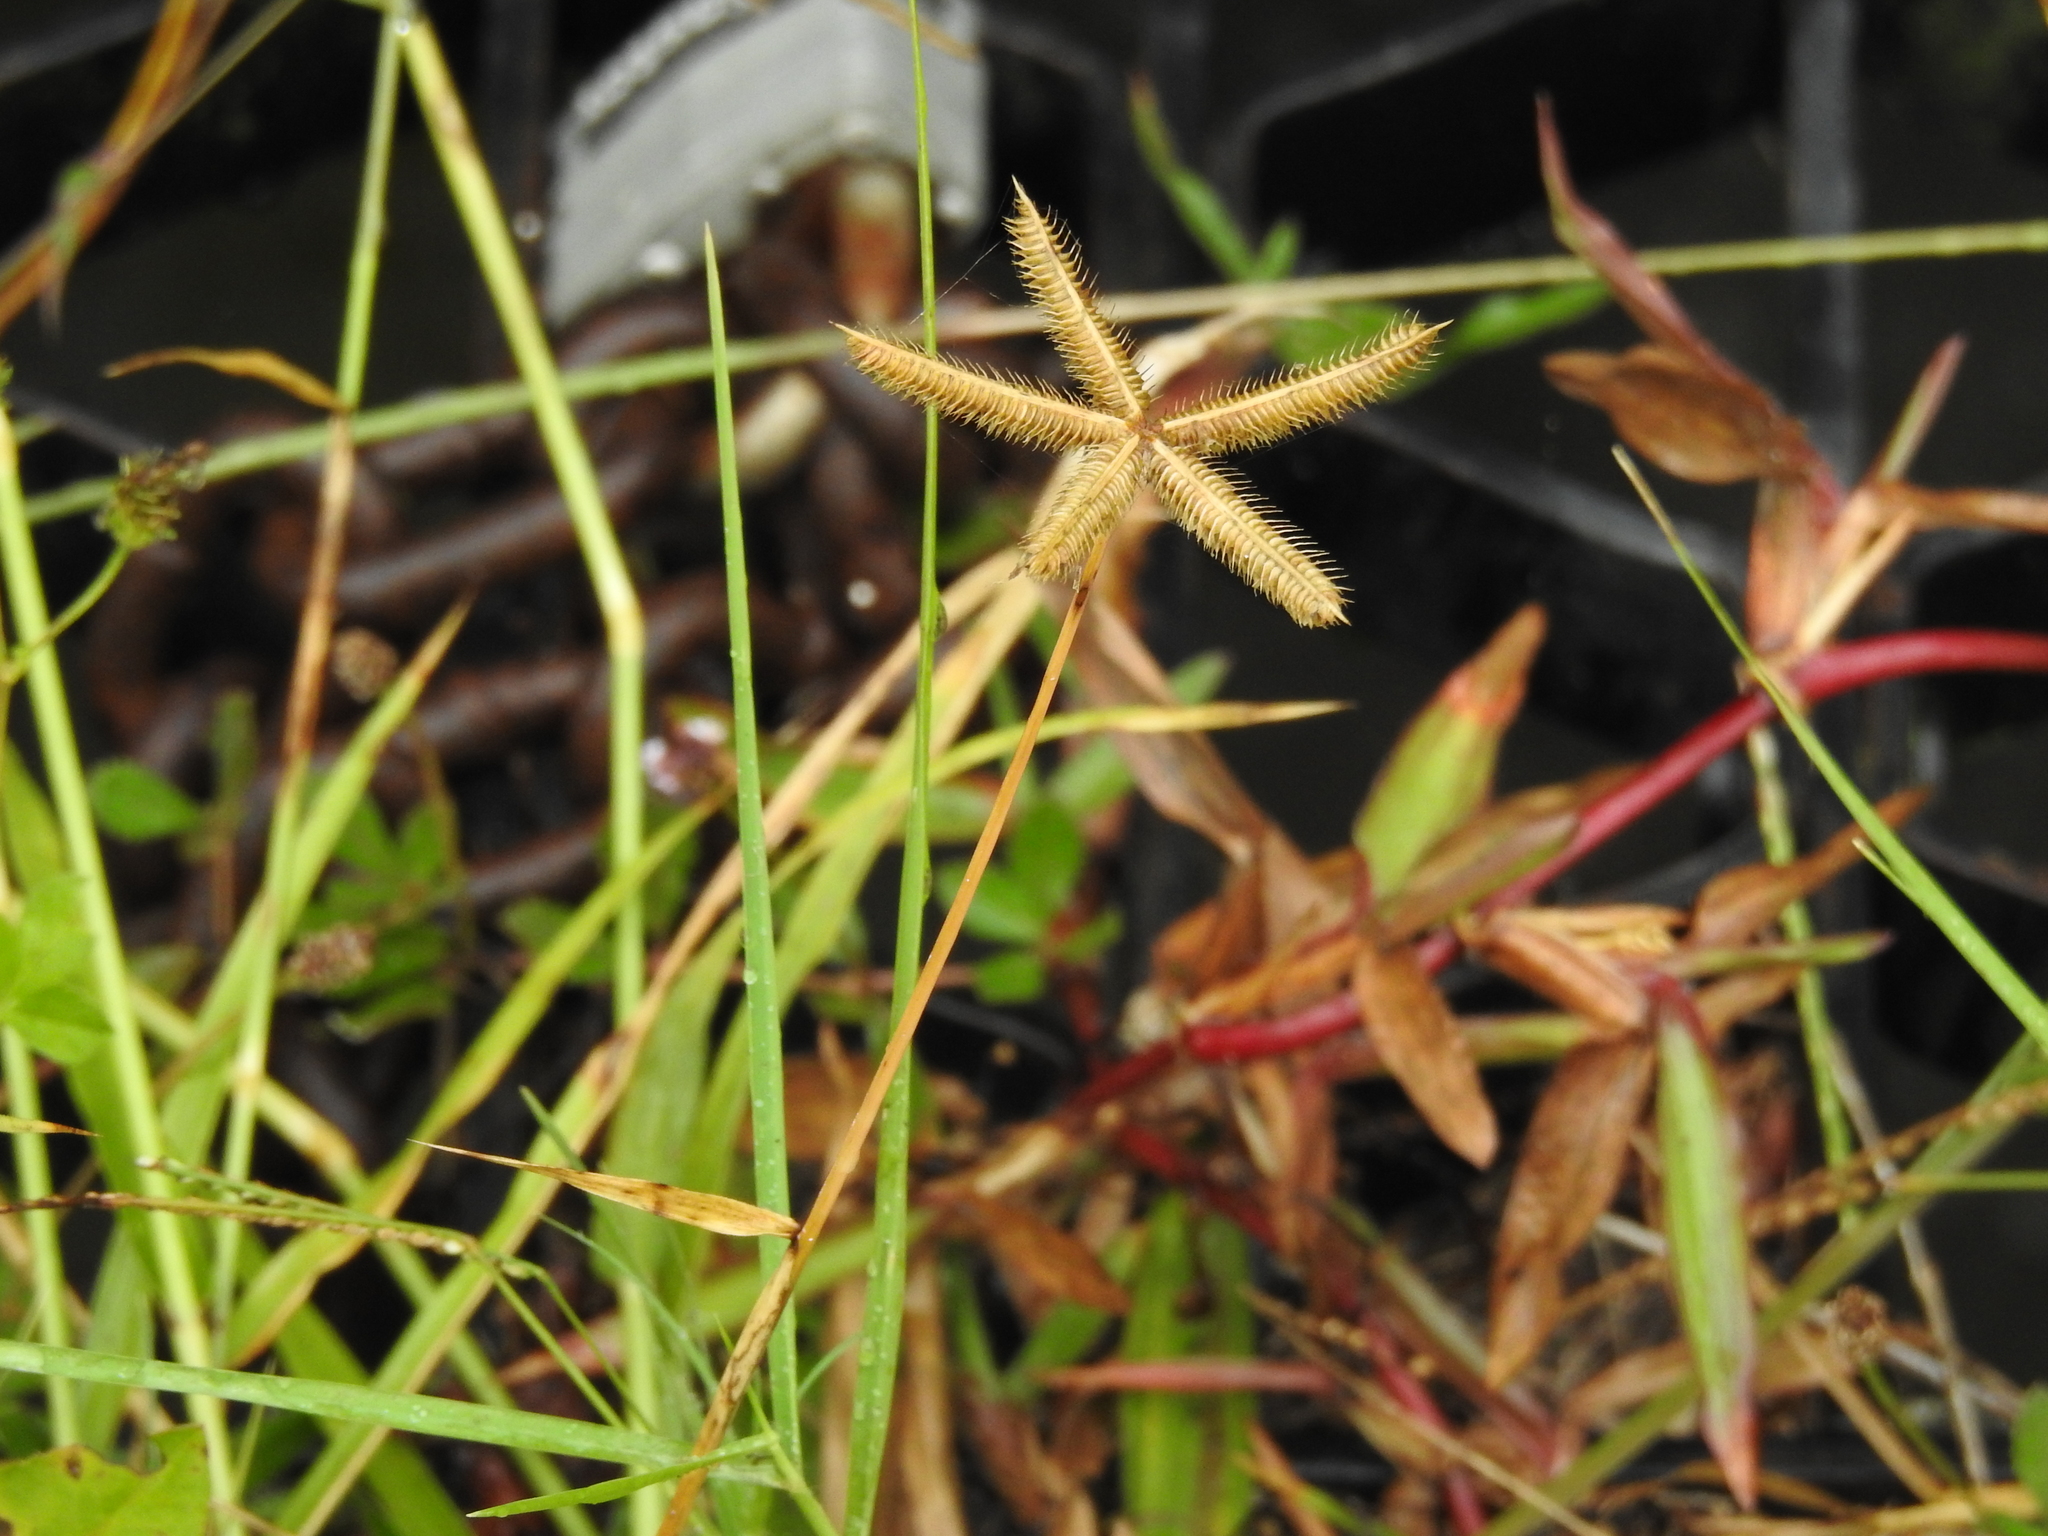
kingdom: Plantae
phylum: Tracheophyta
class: Liliopsida
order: Poales
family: Poaceae
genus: Dactyloctenium
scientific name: Dactyloctenium aegyptium
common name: Egyptian grass
